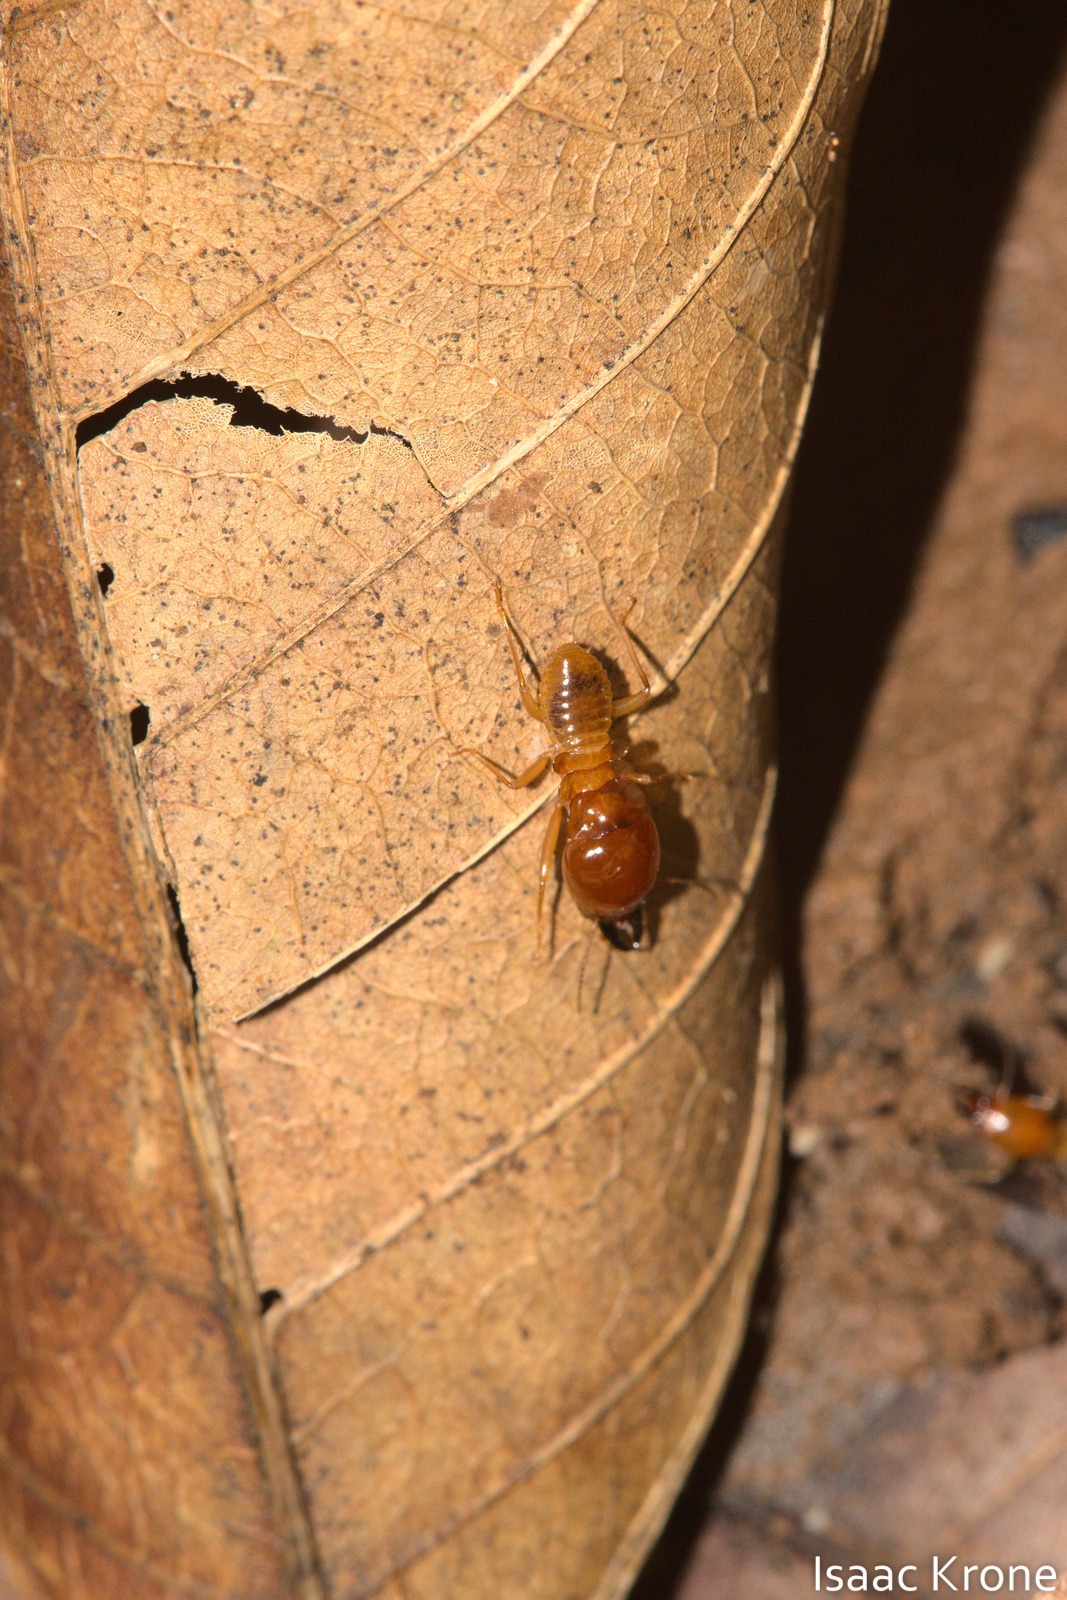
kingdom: Animalia
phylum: Arthropoda
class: Insecta
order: Blattodea
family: Termitidae
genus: Macrotermes
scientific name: Macrotermes gilvus
